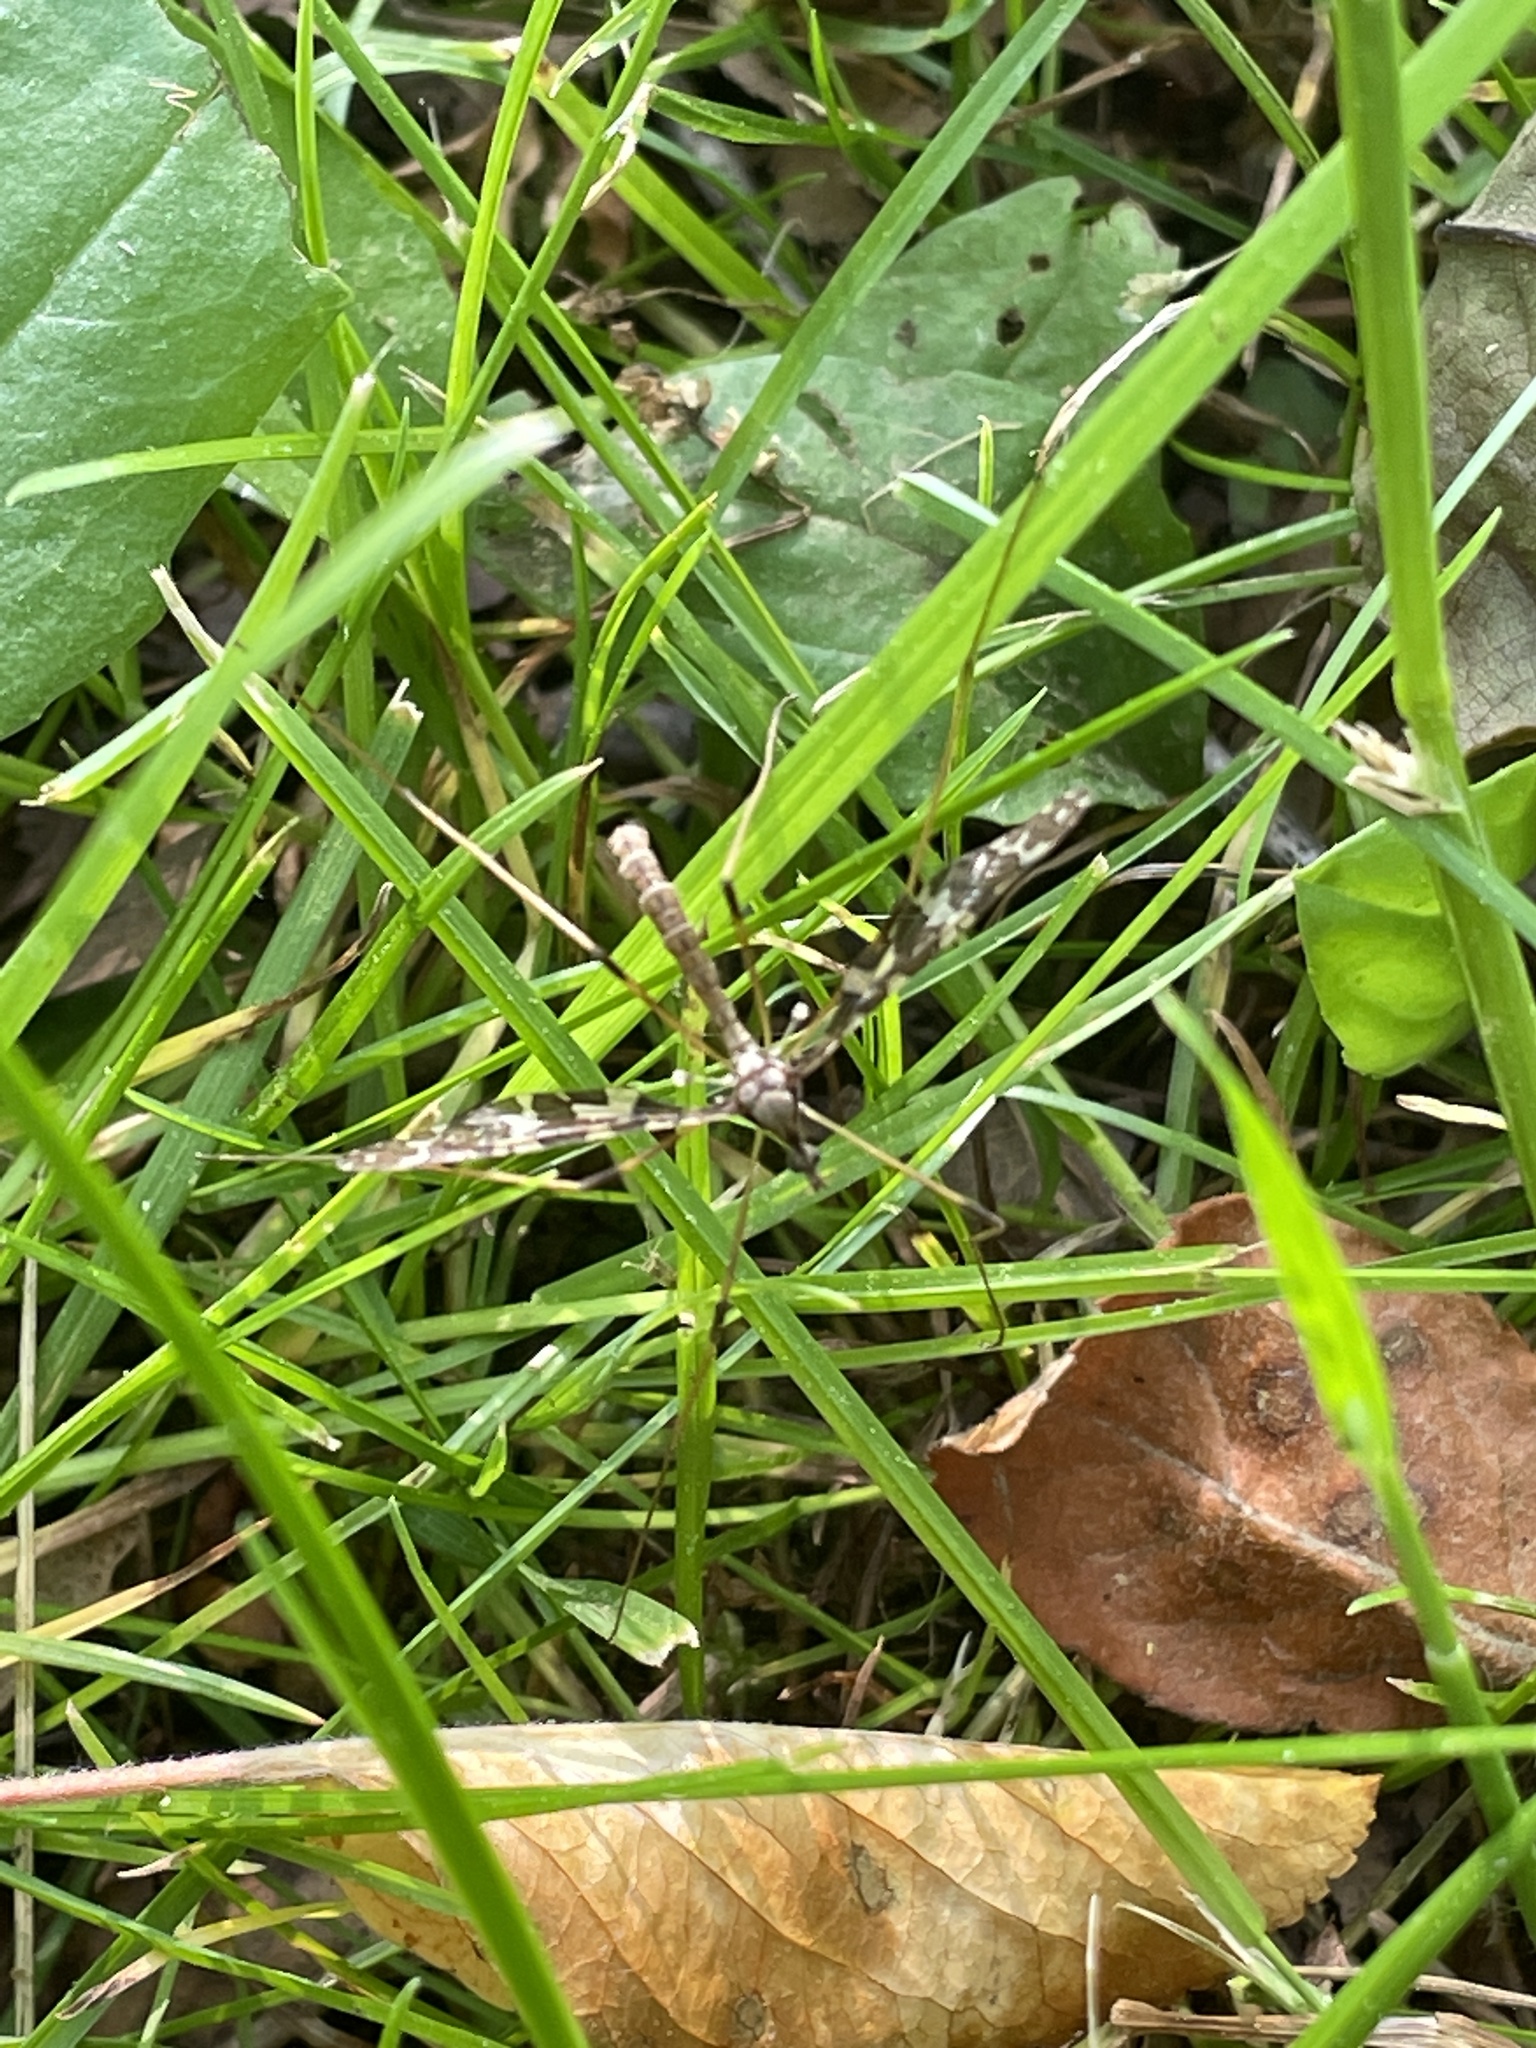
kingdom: Animalia
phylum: Arthropoda
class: Insecta
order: Diptera
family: Limoniidae
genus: Epiphragma
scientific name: Epiphragma fasciapenne
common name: Band-winged crane fly
